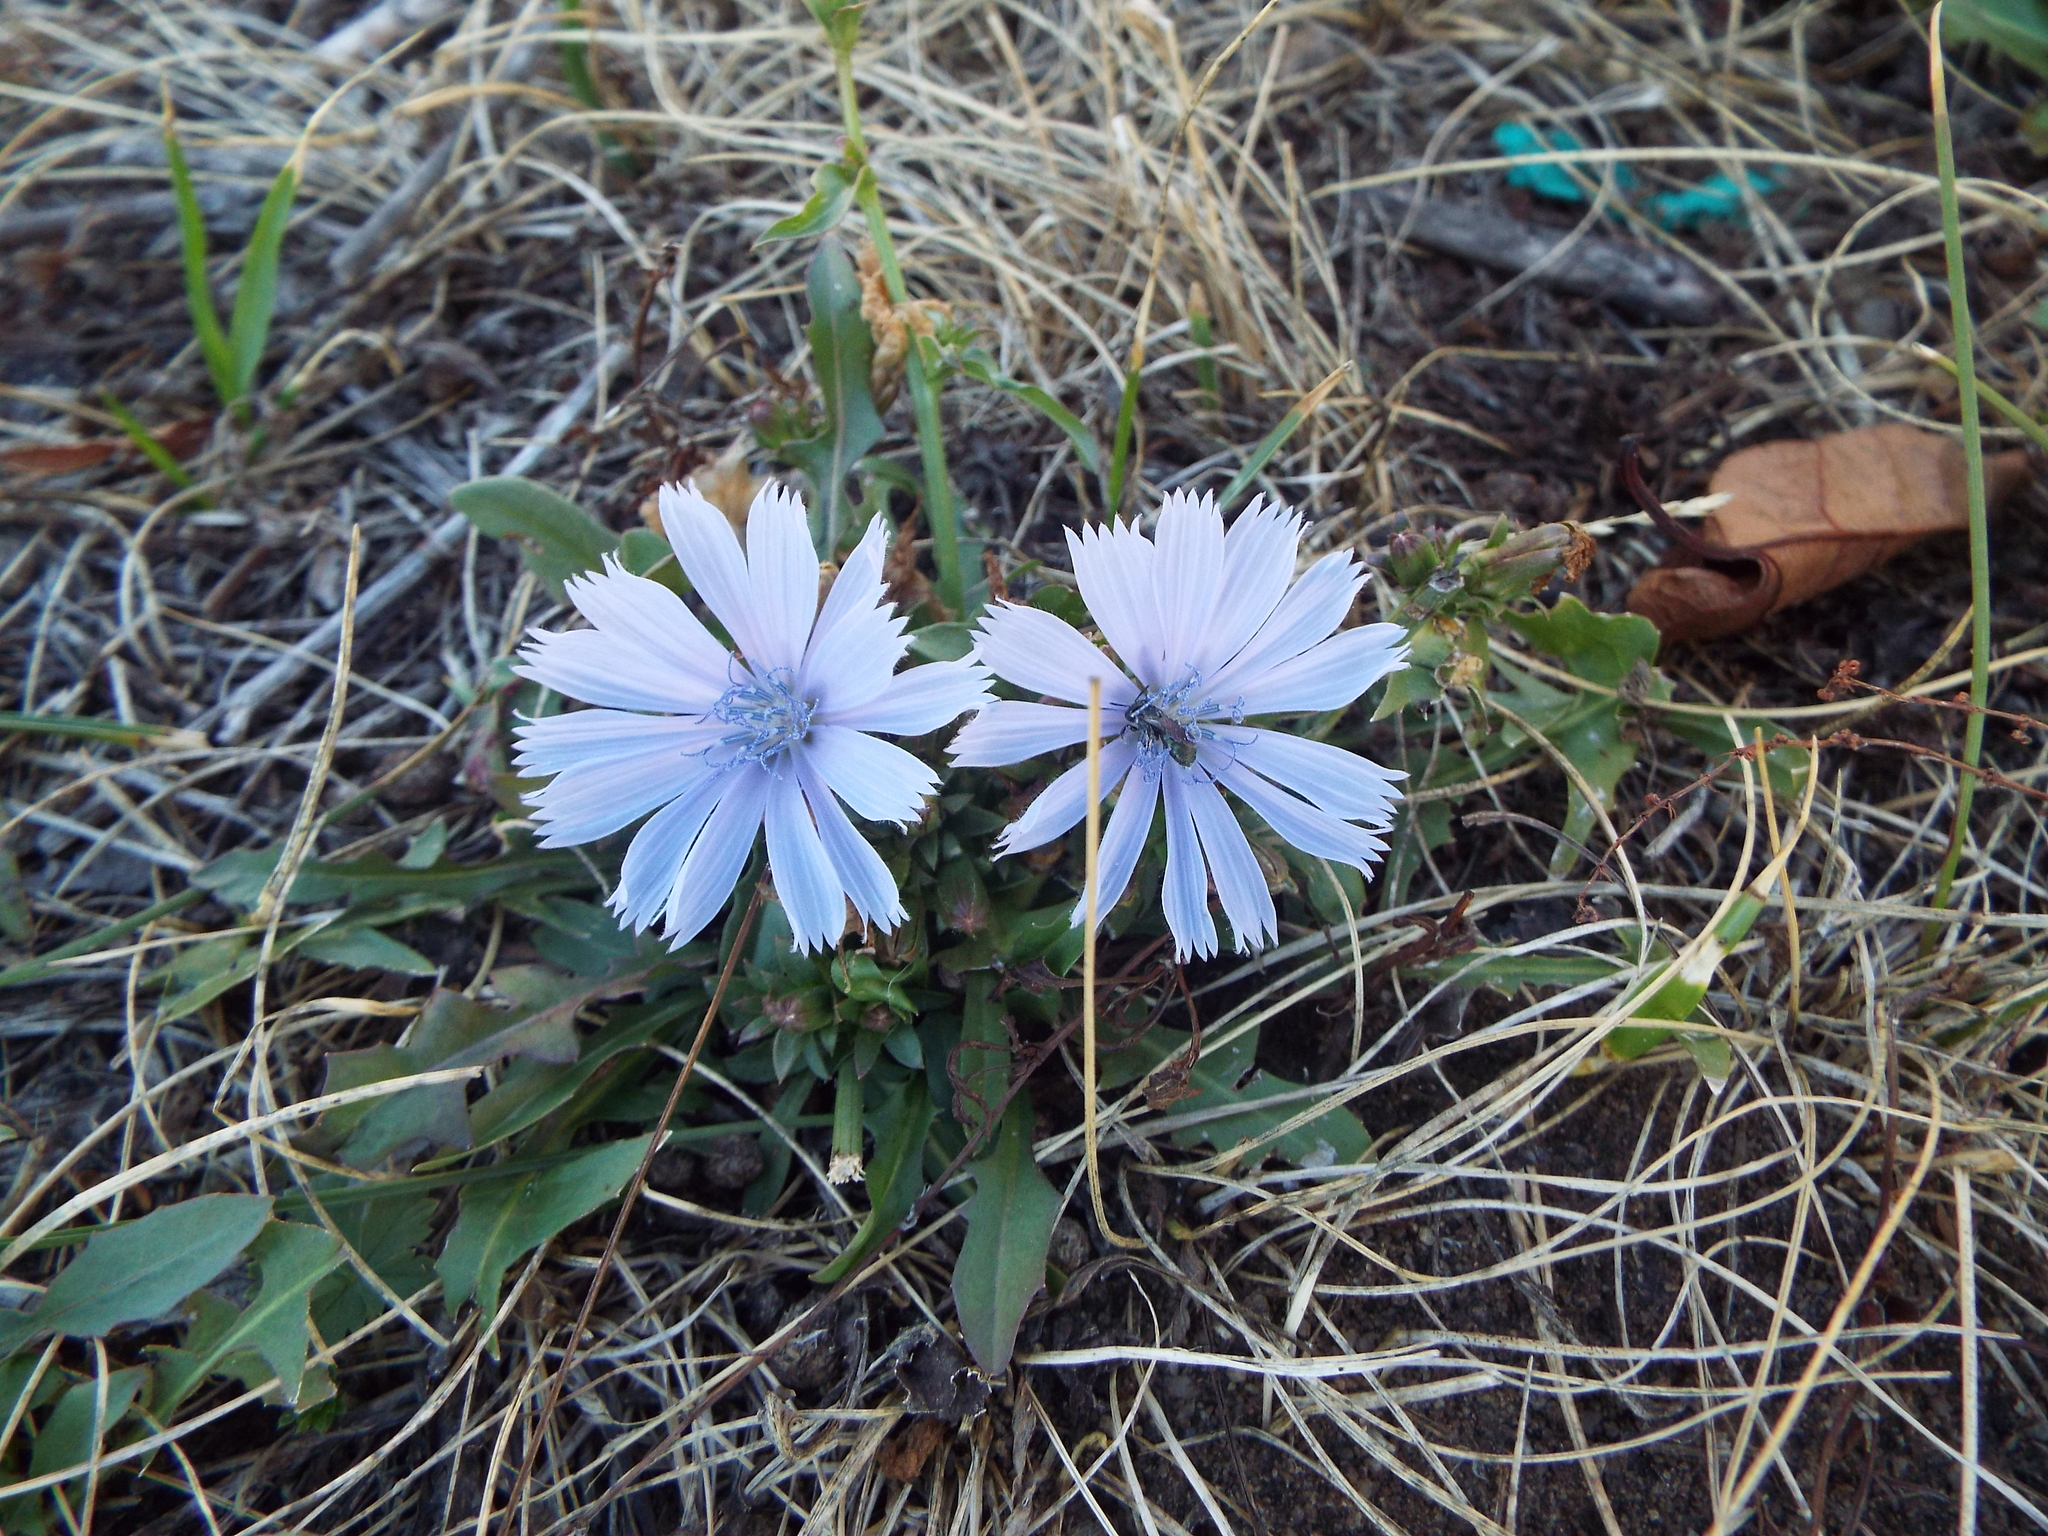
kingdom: Plantae
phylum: Tracheophyta
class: Magnoliopsida
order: Asterales
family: Asteraceae
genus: Cichorium
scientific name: Cichorium intybus
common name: Chicory
